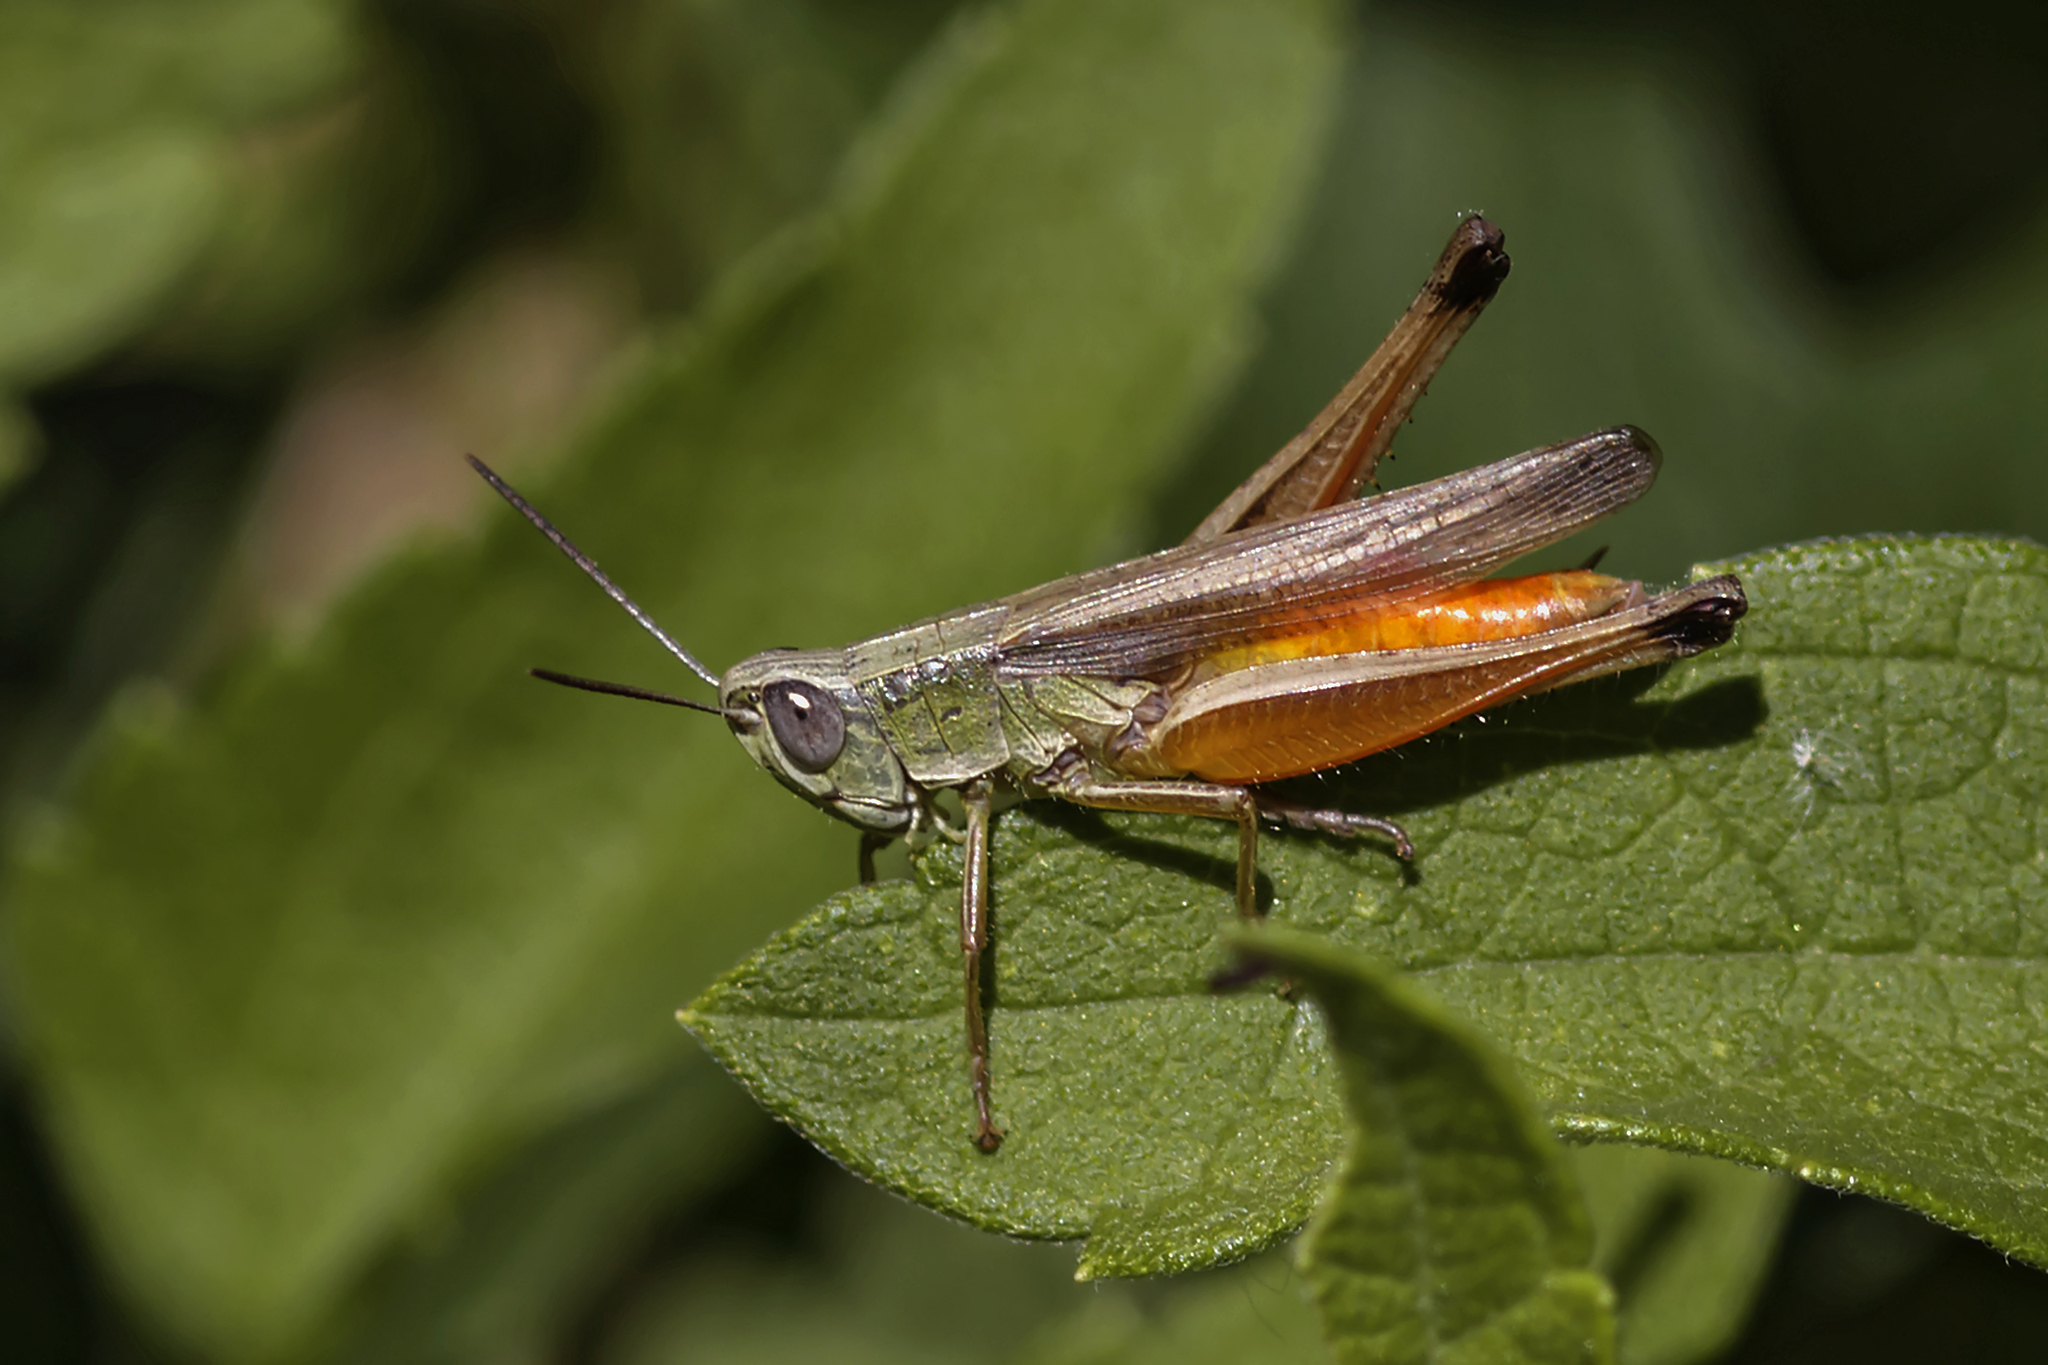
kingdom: Animalia
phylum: Arthropoda
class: Insecta
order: Orthoptera
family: Acrididae
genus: Amblytropidia
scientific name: Amblytropidia australis
